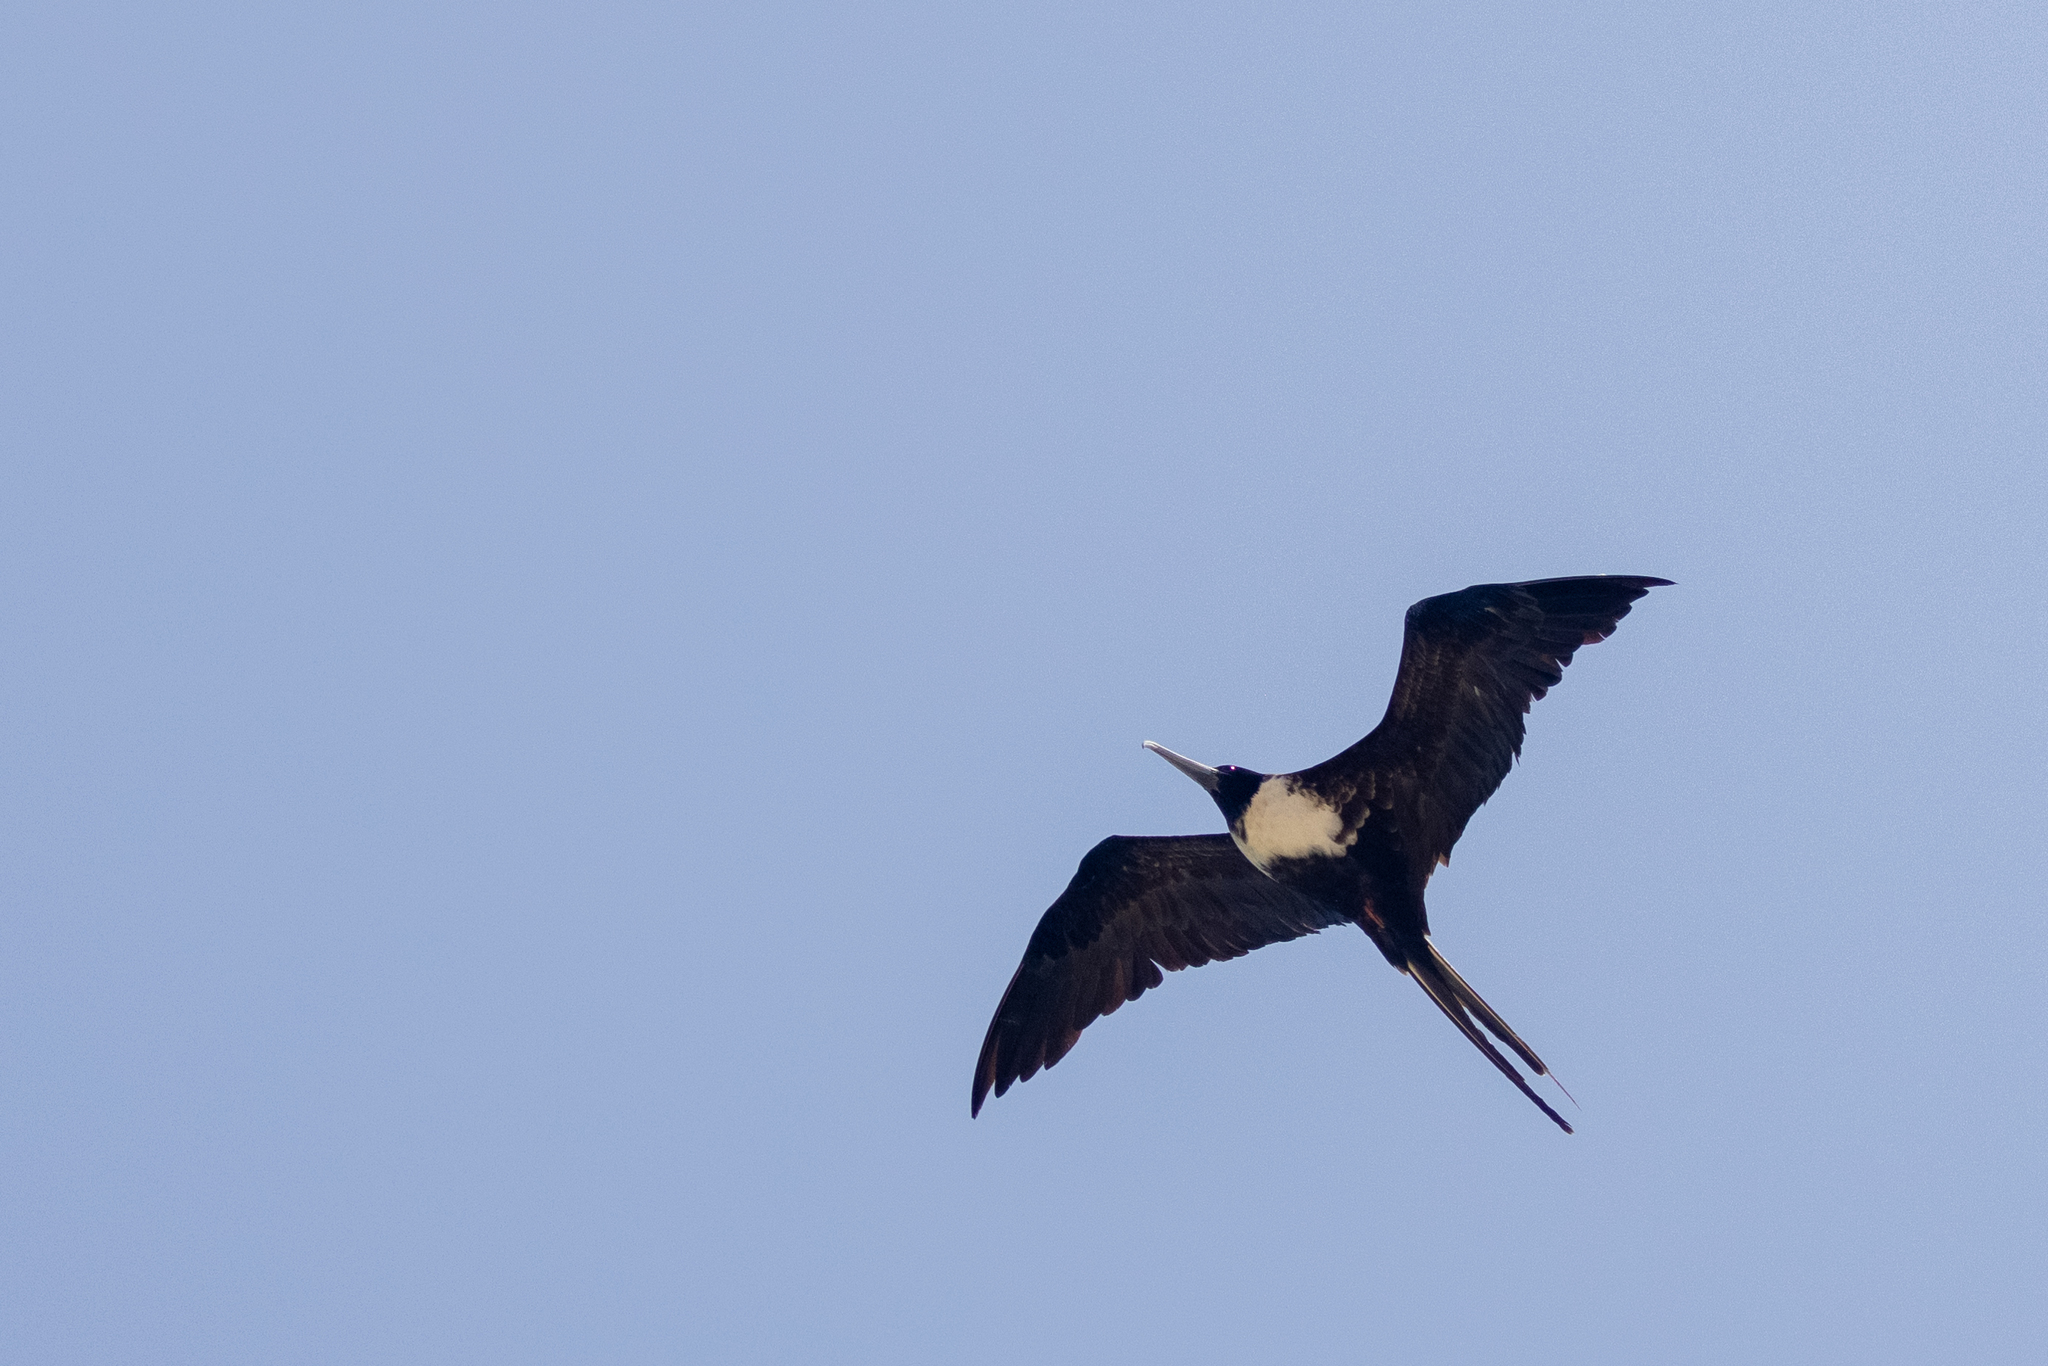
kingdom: Animalia
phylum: Chordata
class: Aves
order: Suliformes
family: Fregatidae
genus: Fregata
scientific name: Fregata magnificens
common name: Magnificent frigatebird
